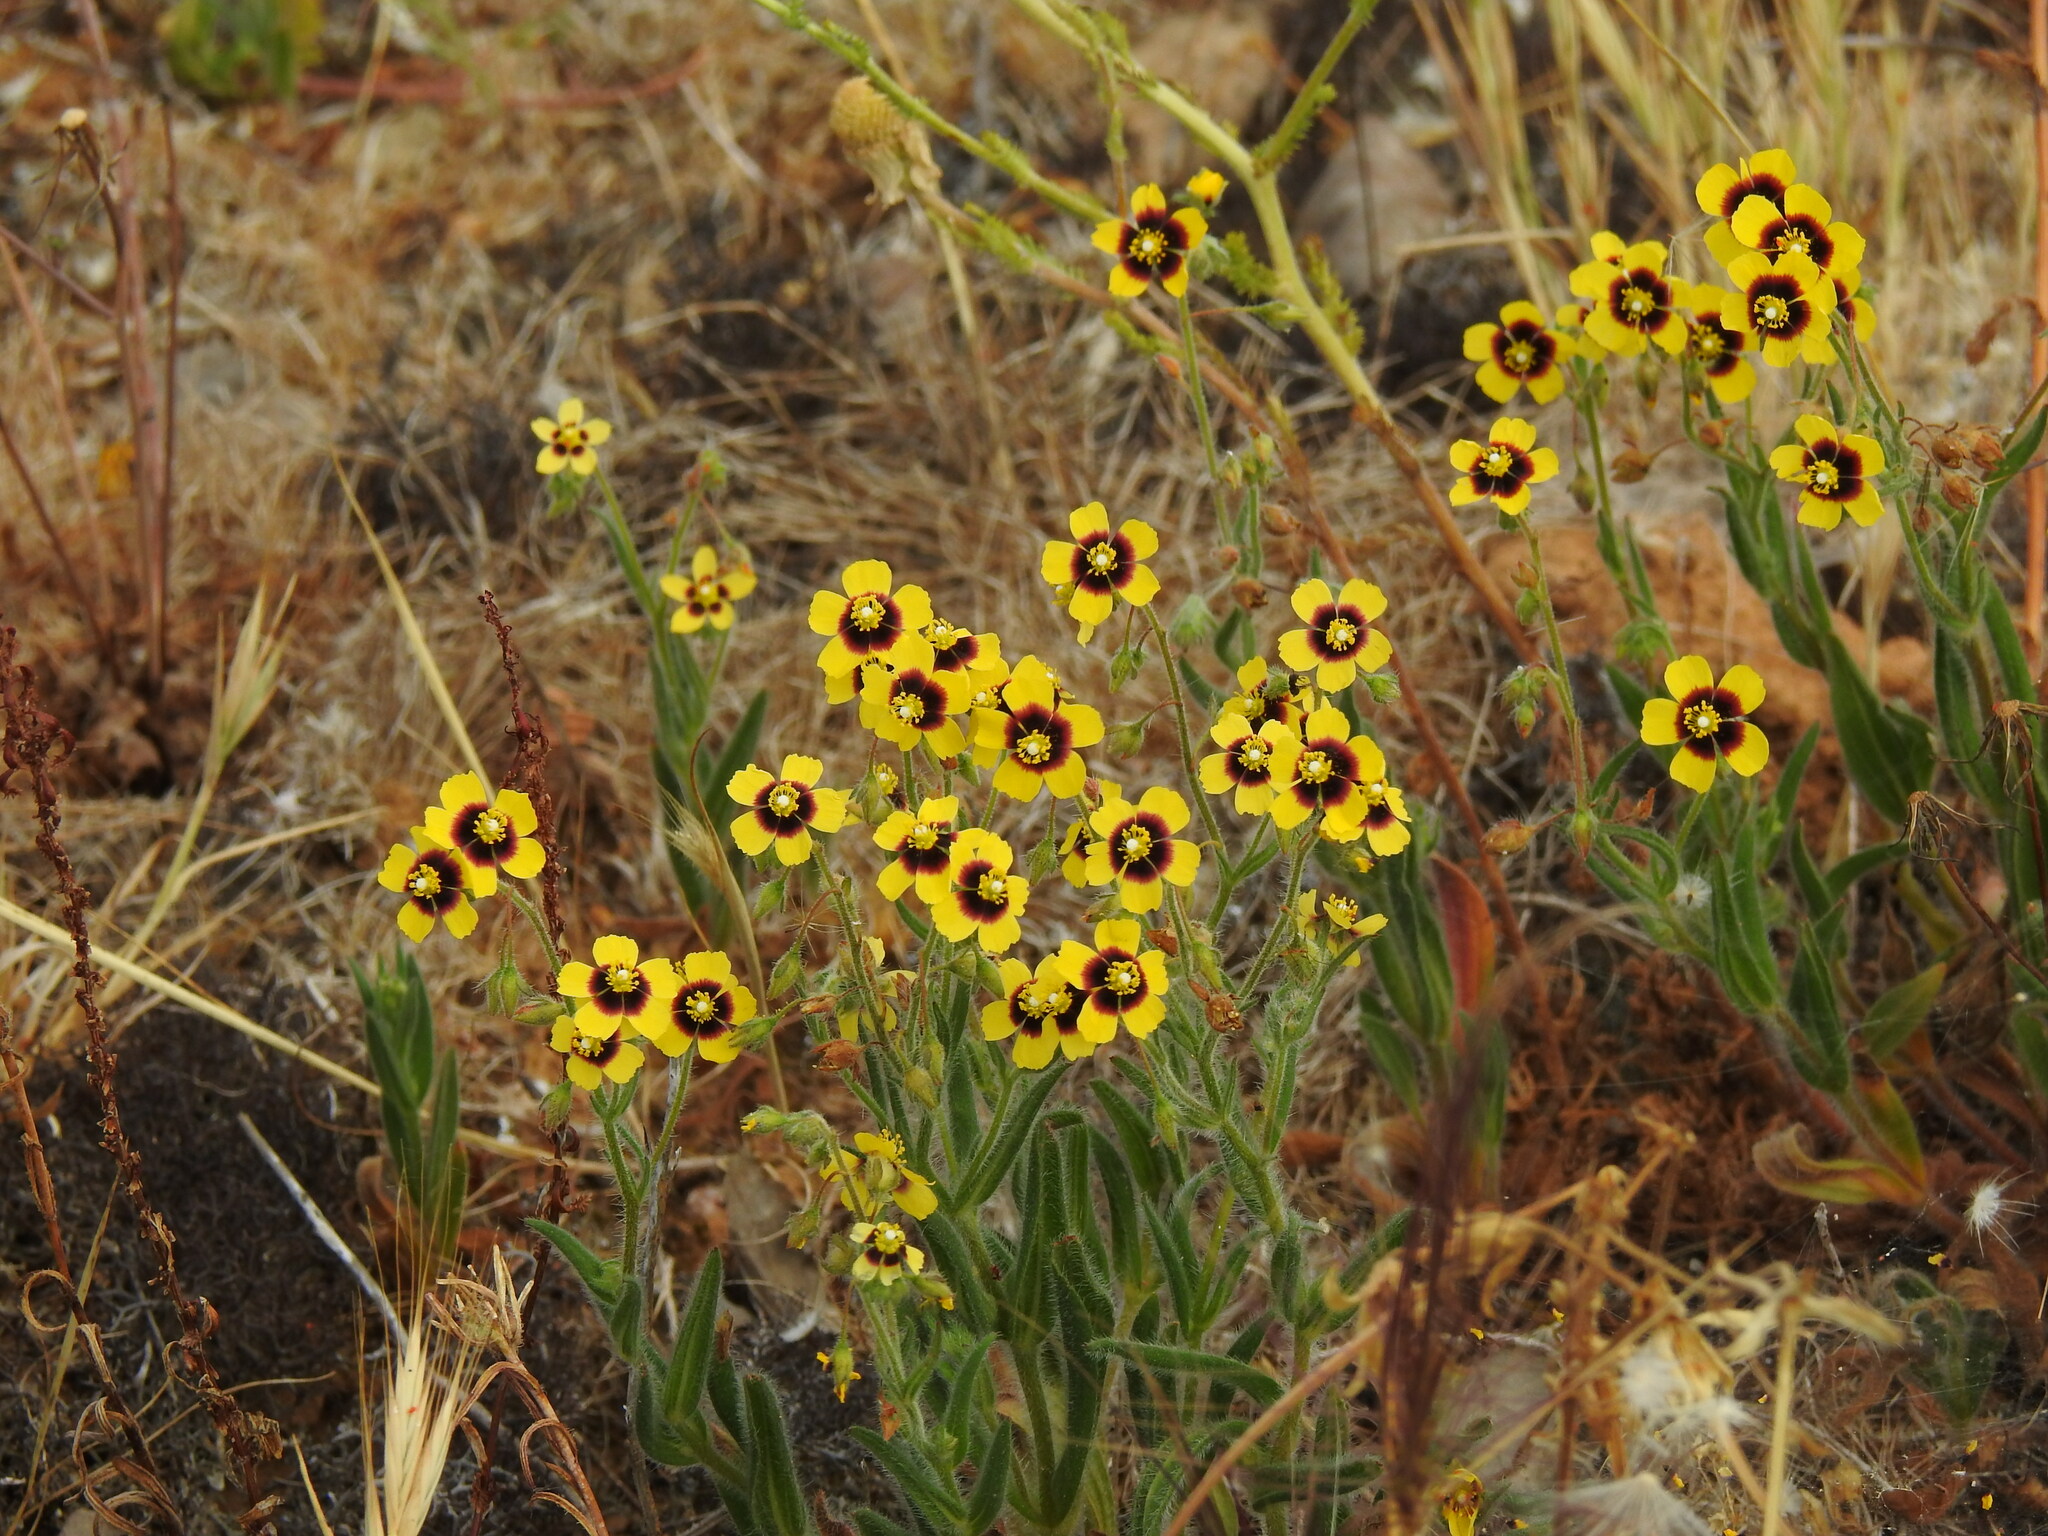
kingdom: Plantae
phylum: Tracheophyta
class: Magnoliopsida
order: Malvales
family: Cistaceae
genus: Tuberaria
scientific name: Tuberaria guttata
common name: Spotted rock-rose
